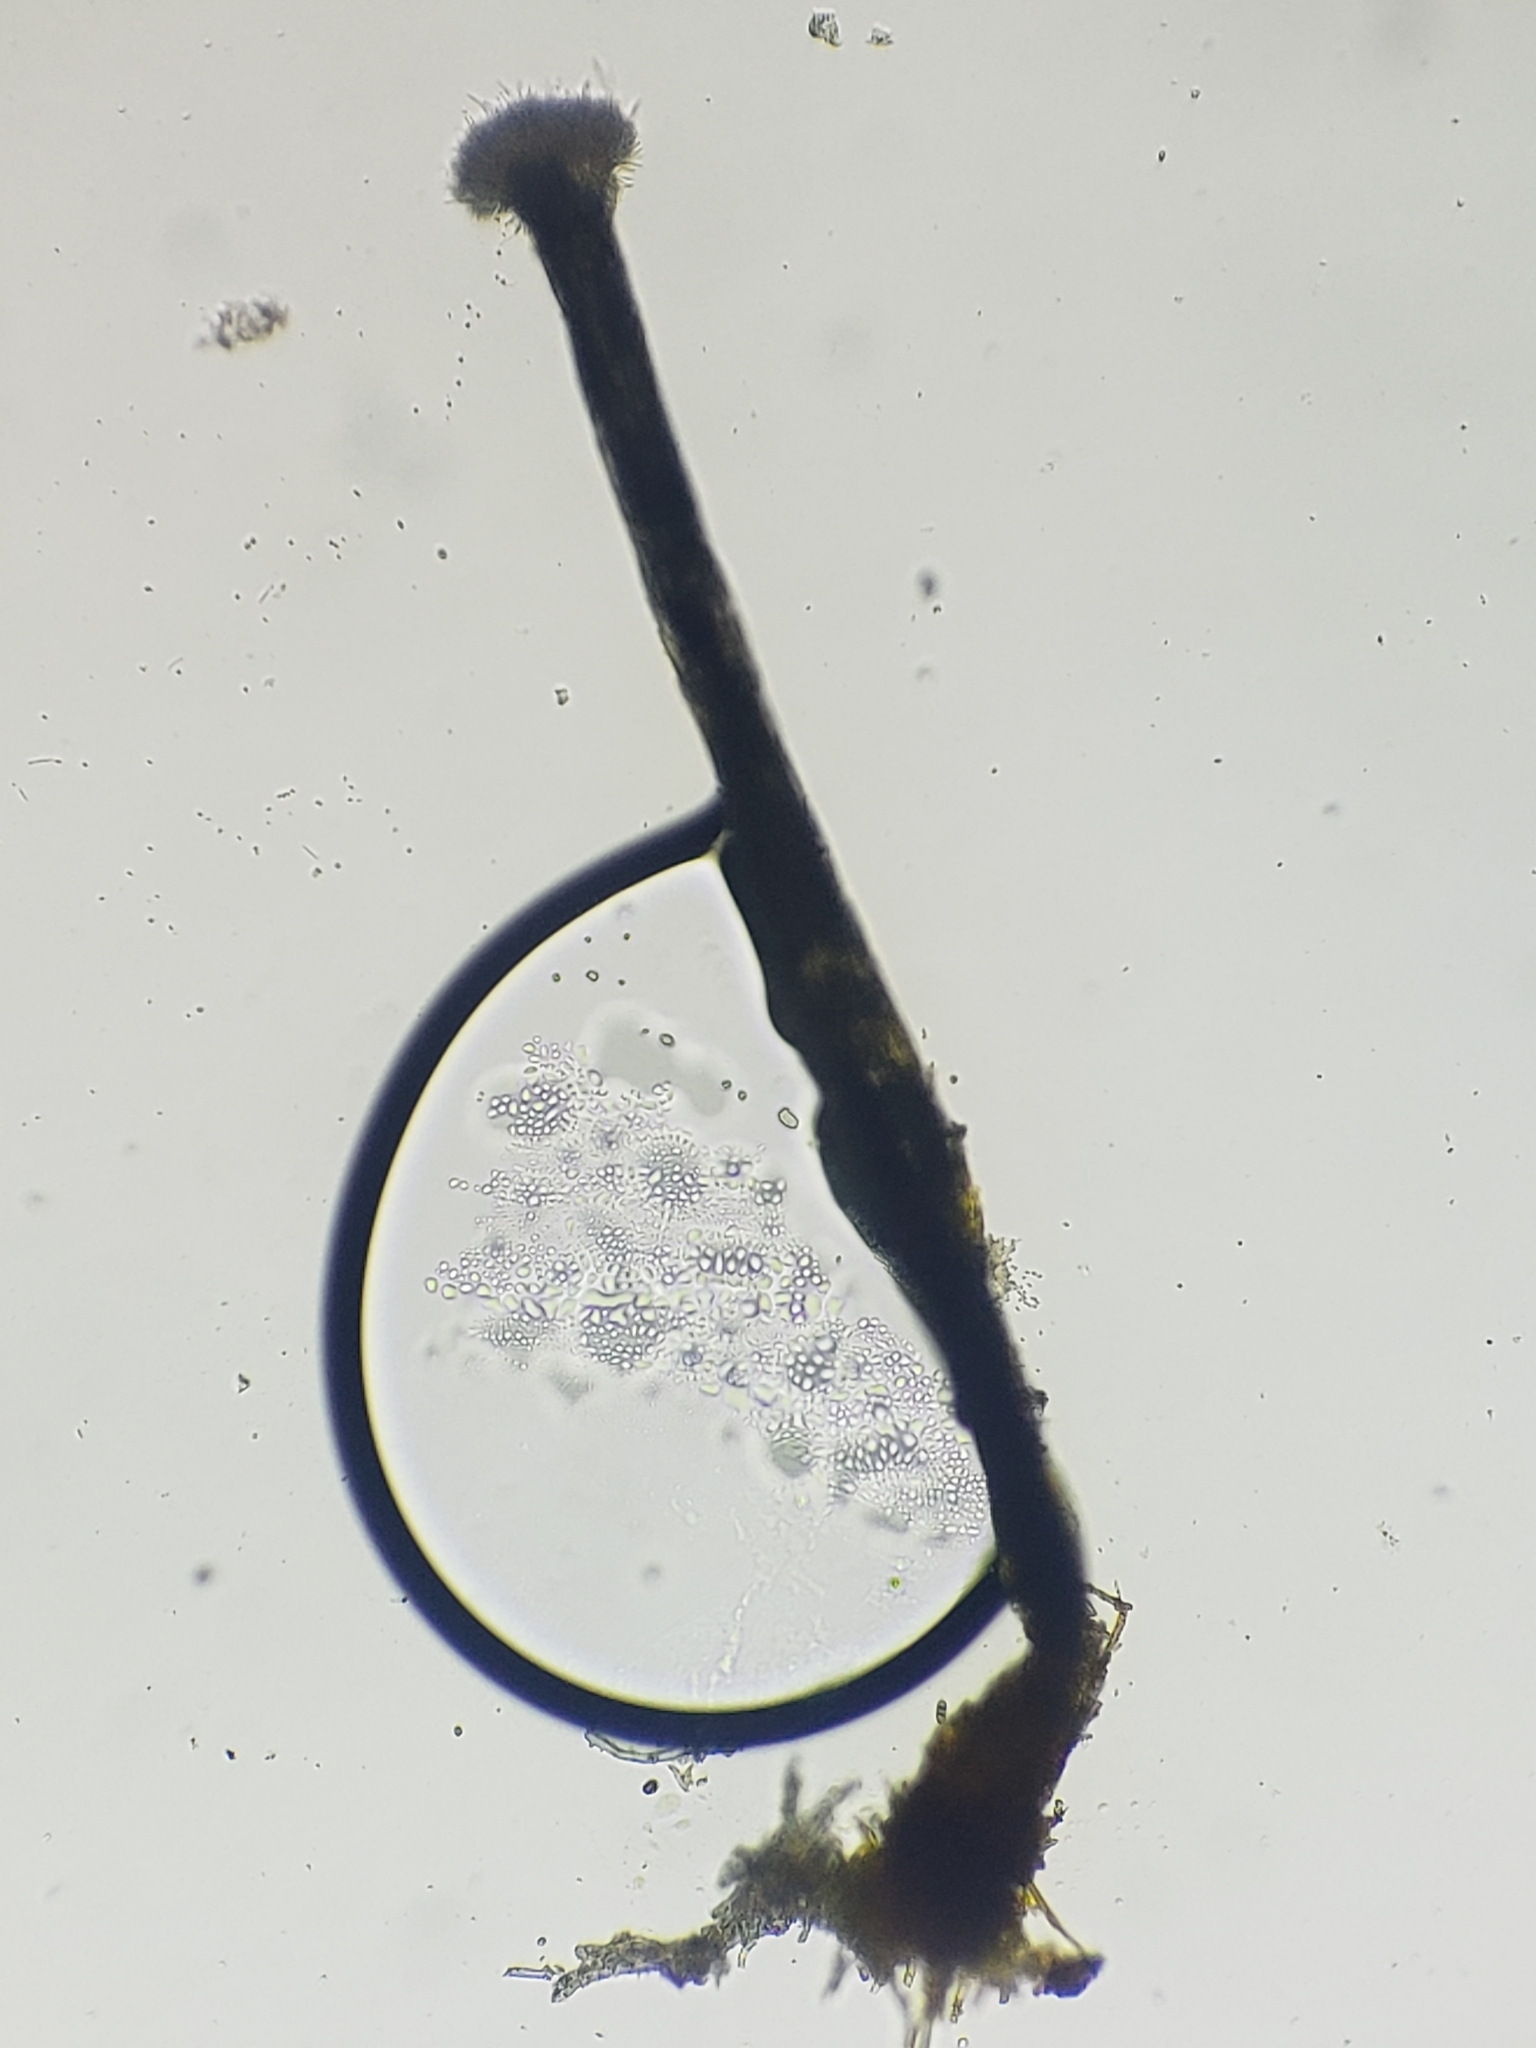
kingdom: Fungi
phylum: Ascomycota
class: Sordariomycetes
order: Hypocreales
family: Hypocreaceae
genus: Sphaerostilbella
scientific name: Sphaerostilbella aurifila
